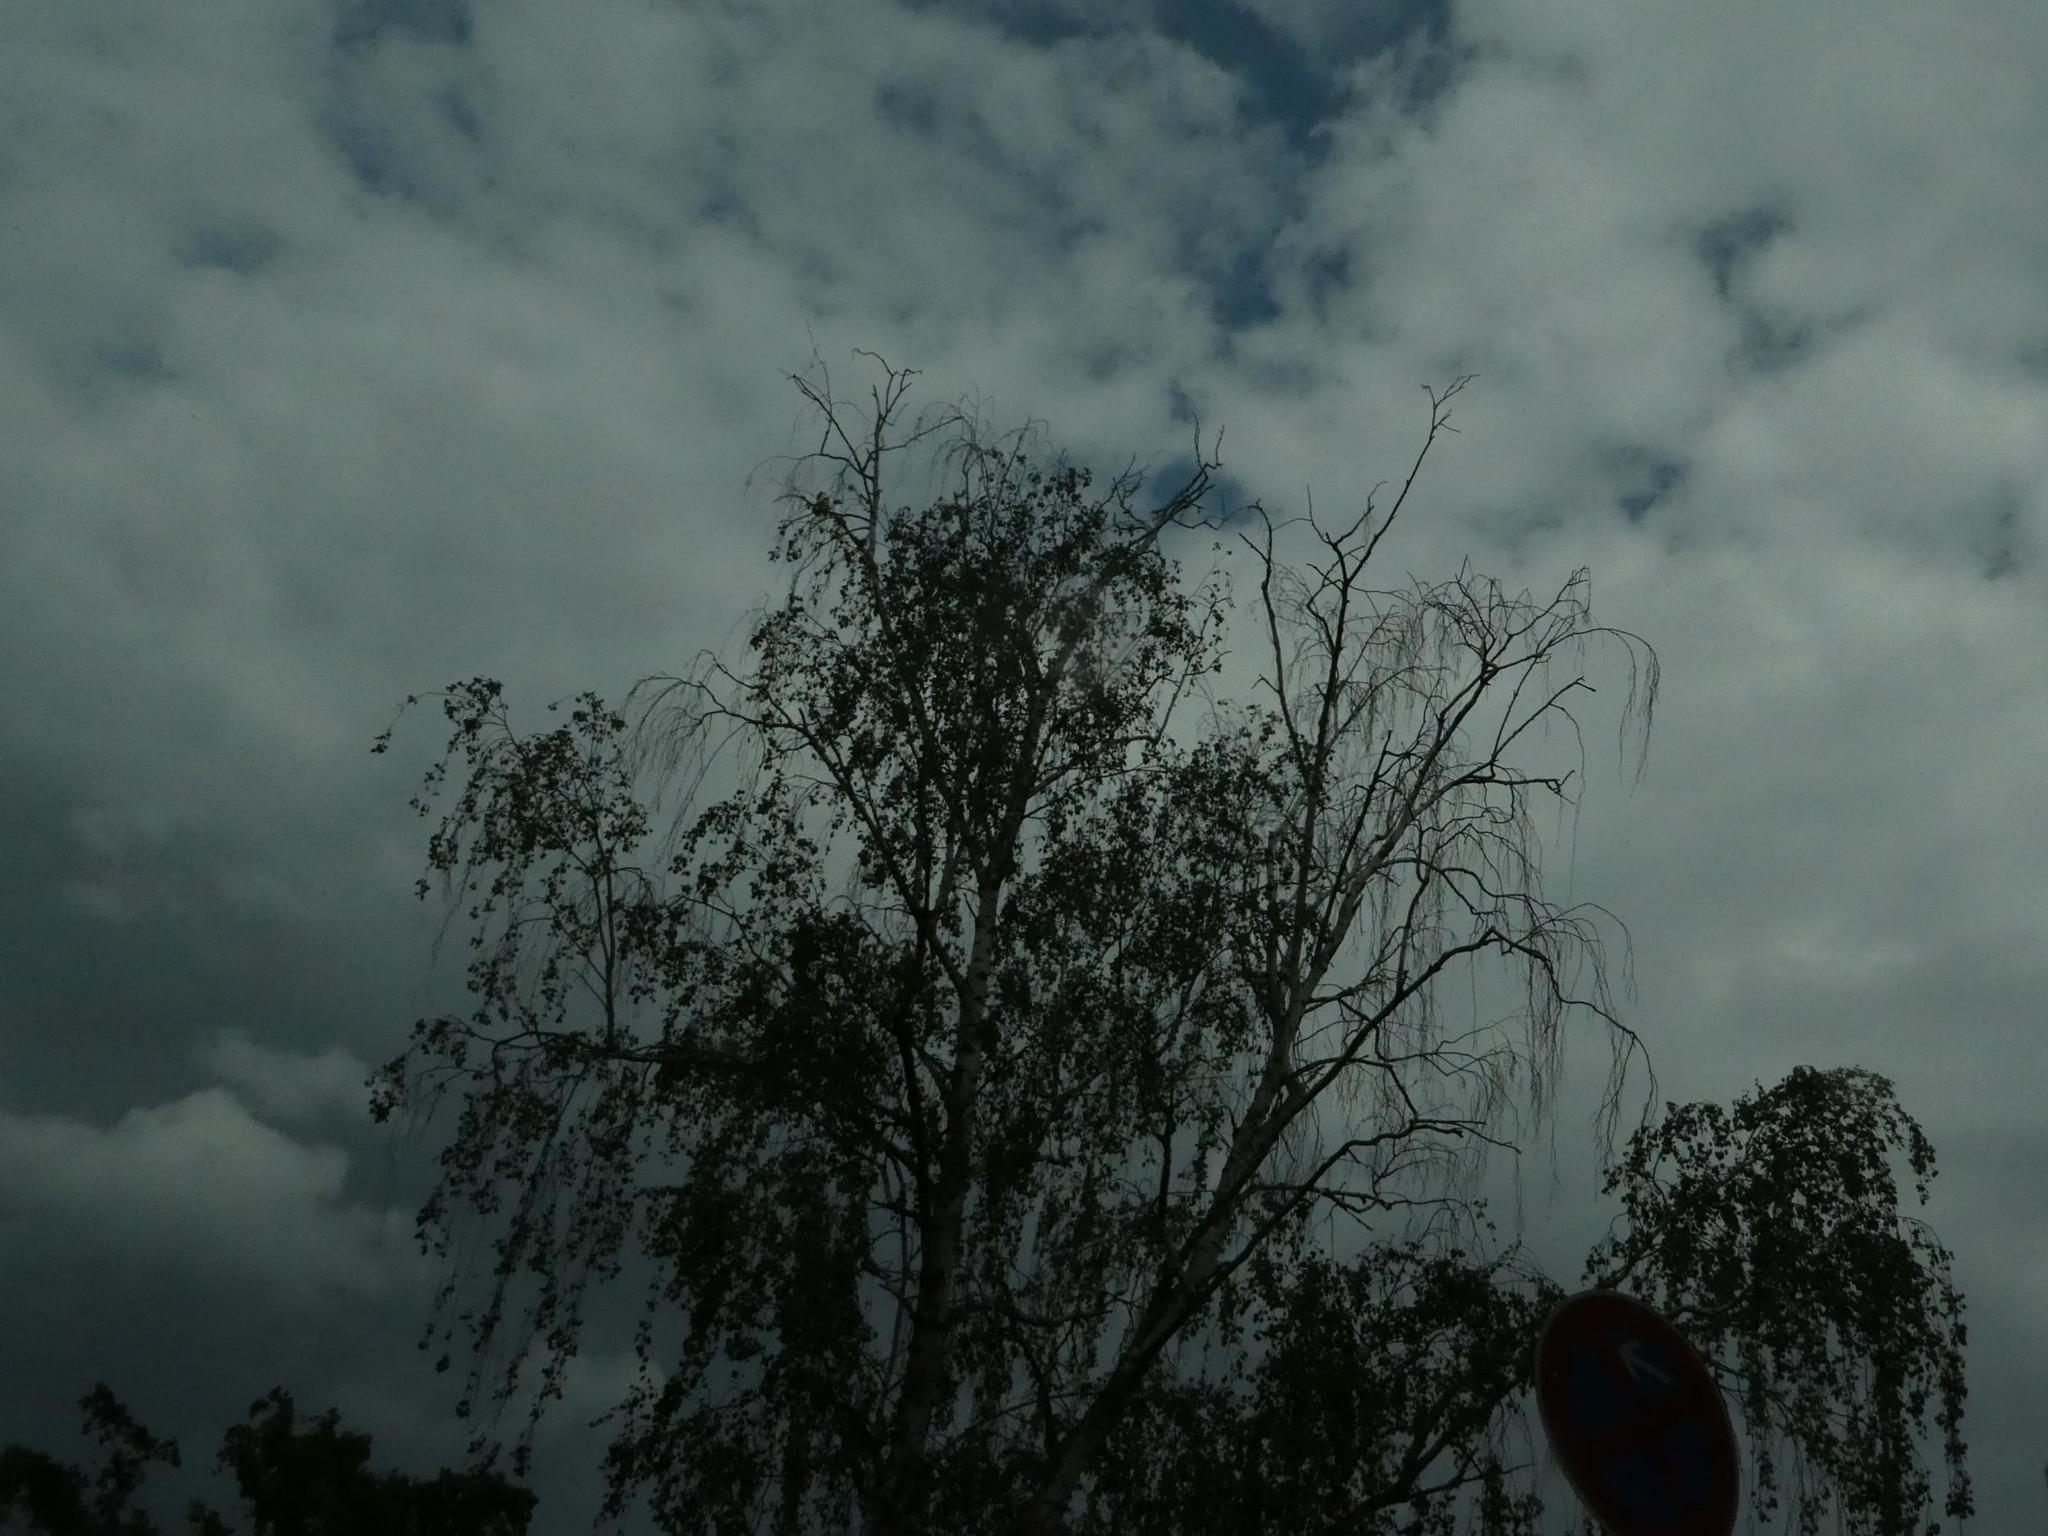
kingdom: Plantae
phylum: Tracheophyta
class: Magnoliopsida
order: Fagales
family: Betulaceae
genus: Betula
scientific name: Betula pendula
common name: Silver birch
